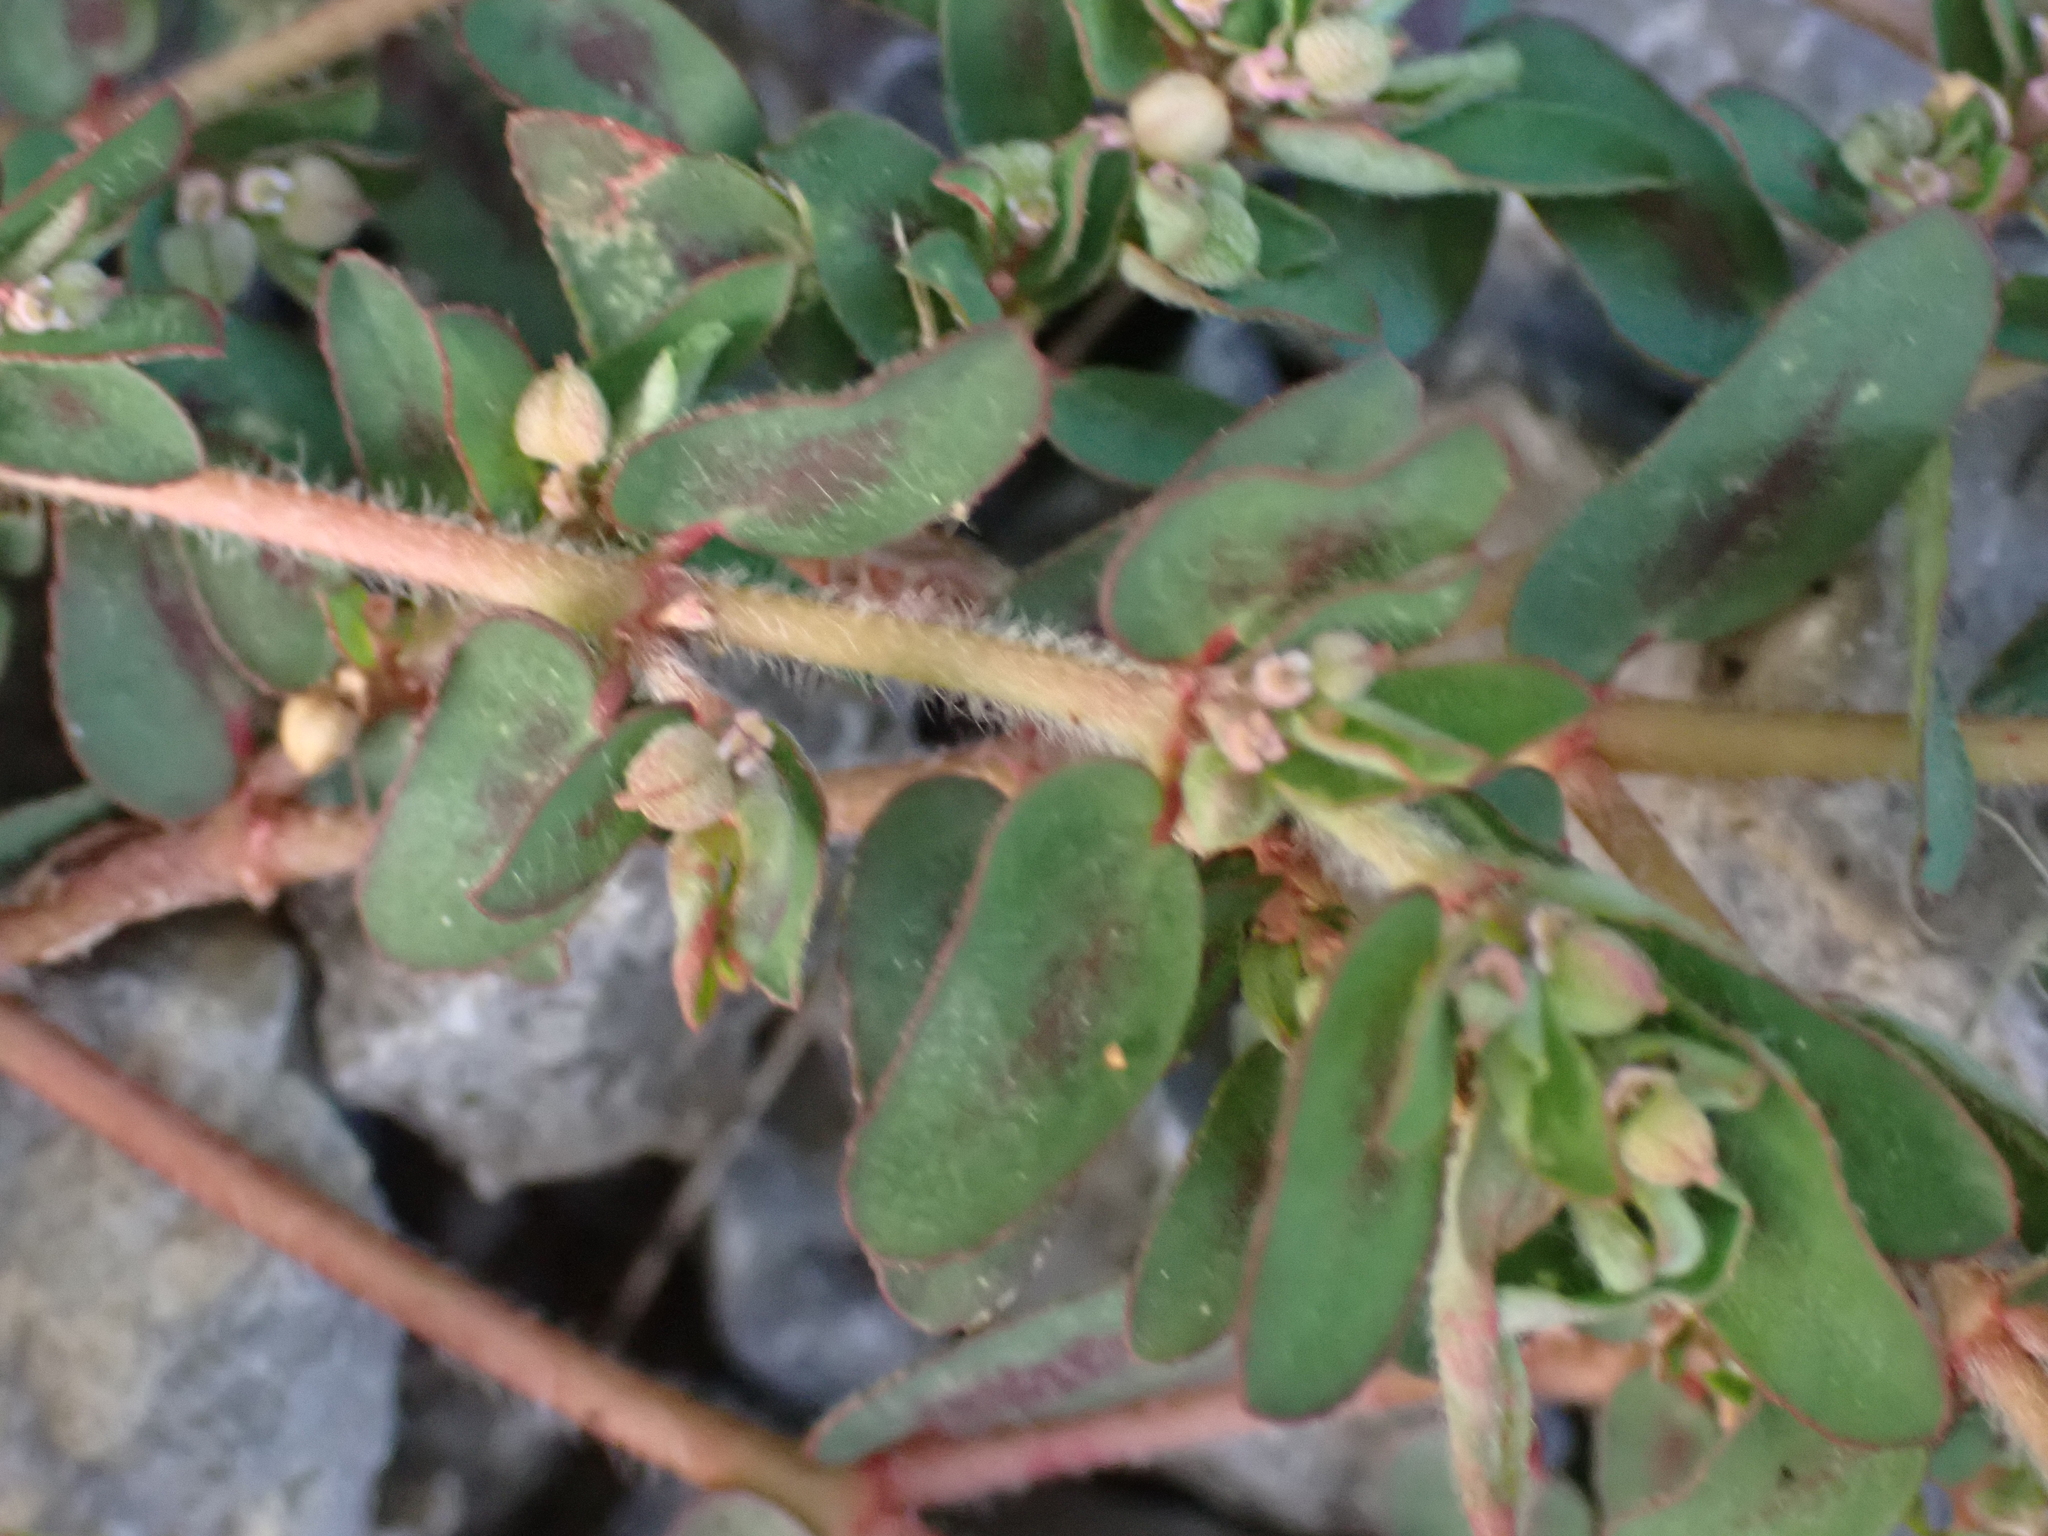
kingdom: Plantae
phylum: Tracheophyta
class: Magnoliopsida
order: Malpighiales
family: Euphorbiaceae
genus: Euphorbia
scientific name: Euphorbia maculata
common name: Spotted spurge
